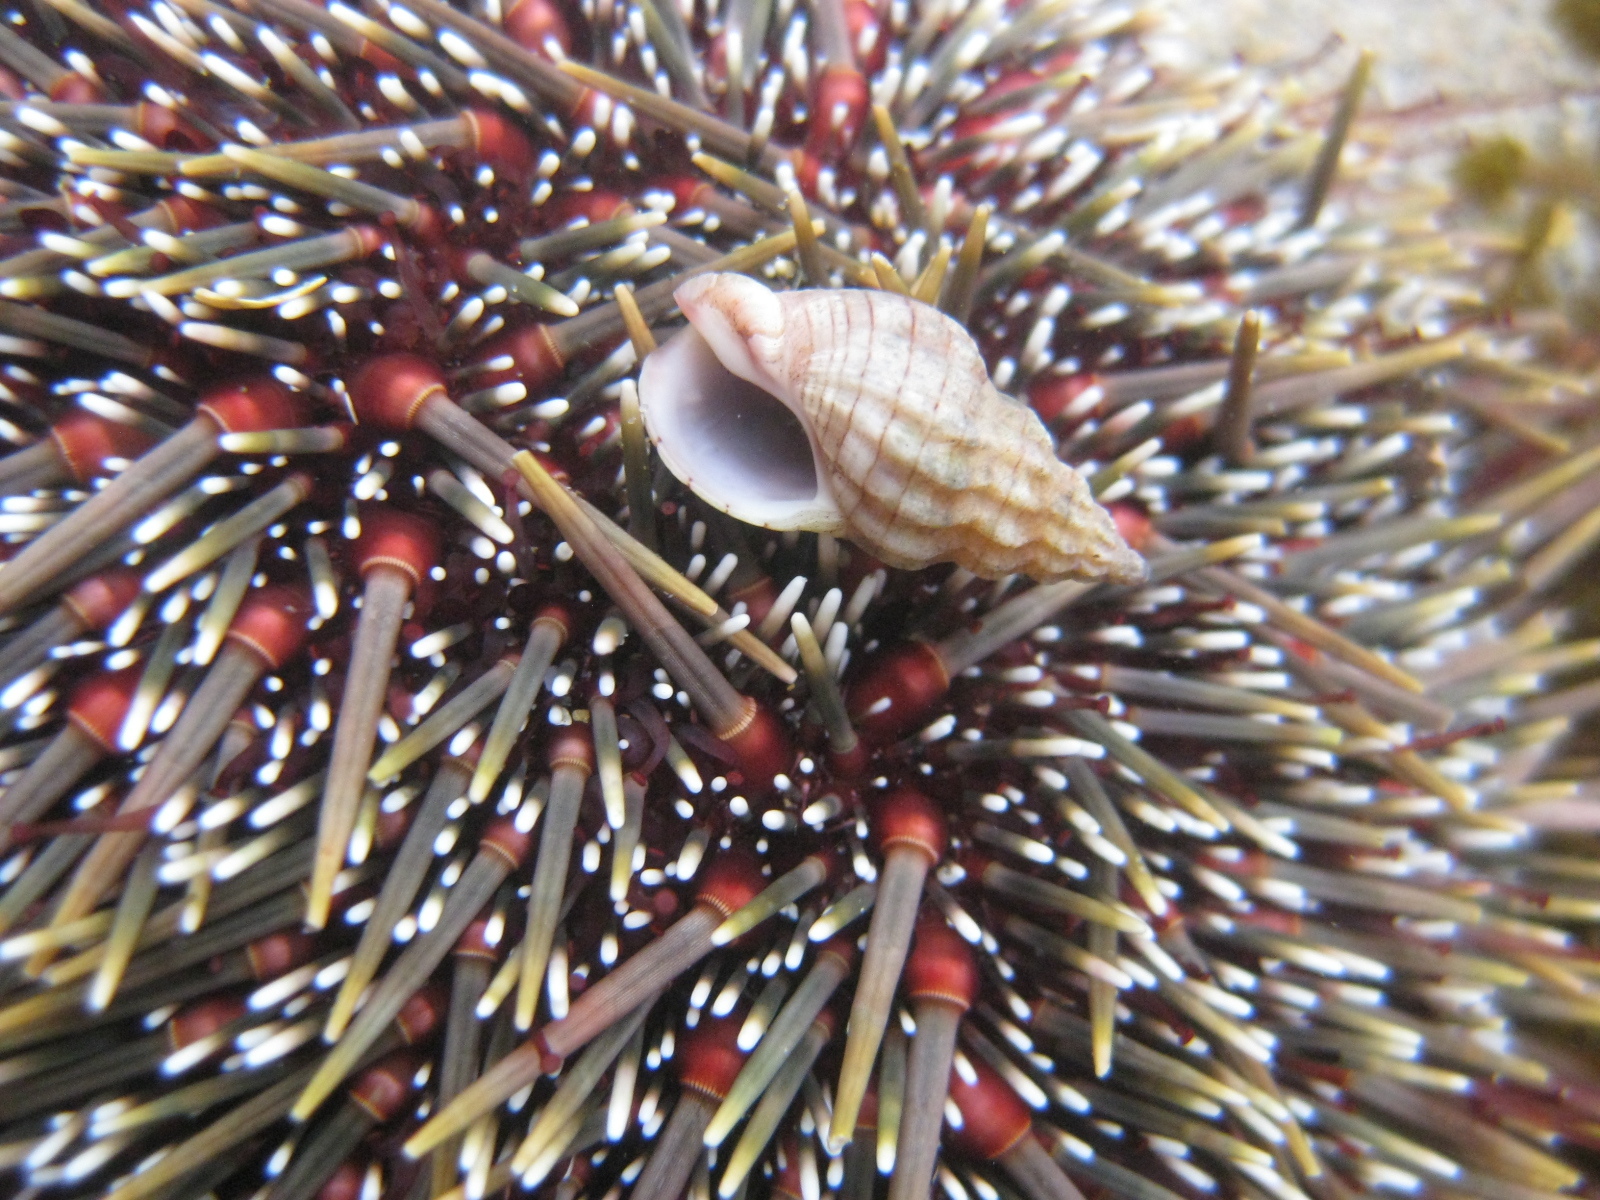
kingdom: Animalia
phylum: Mollusca
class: Gastropoda
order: Neogastropoda
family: Cominellidae
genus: Cominella
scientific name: Cominella quoyana
